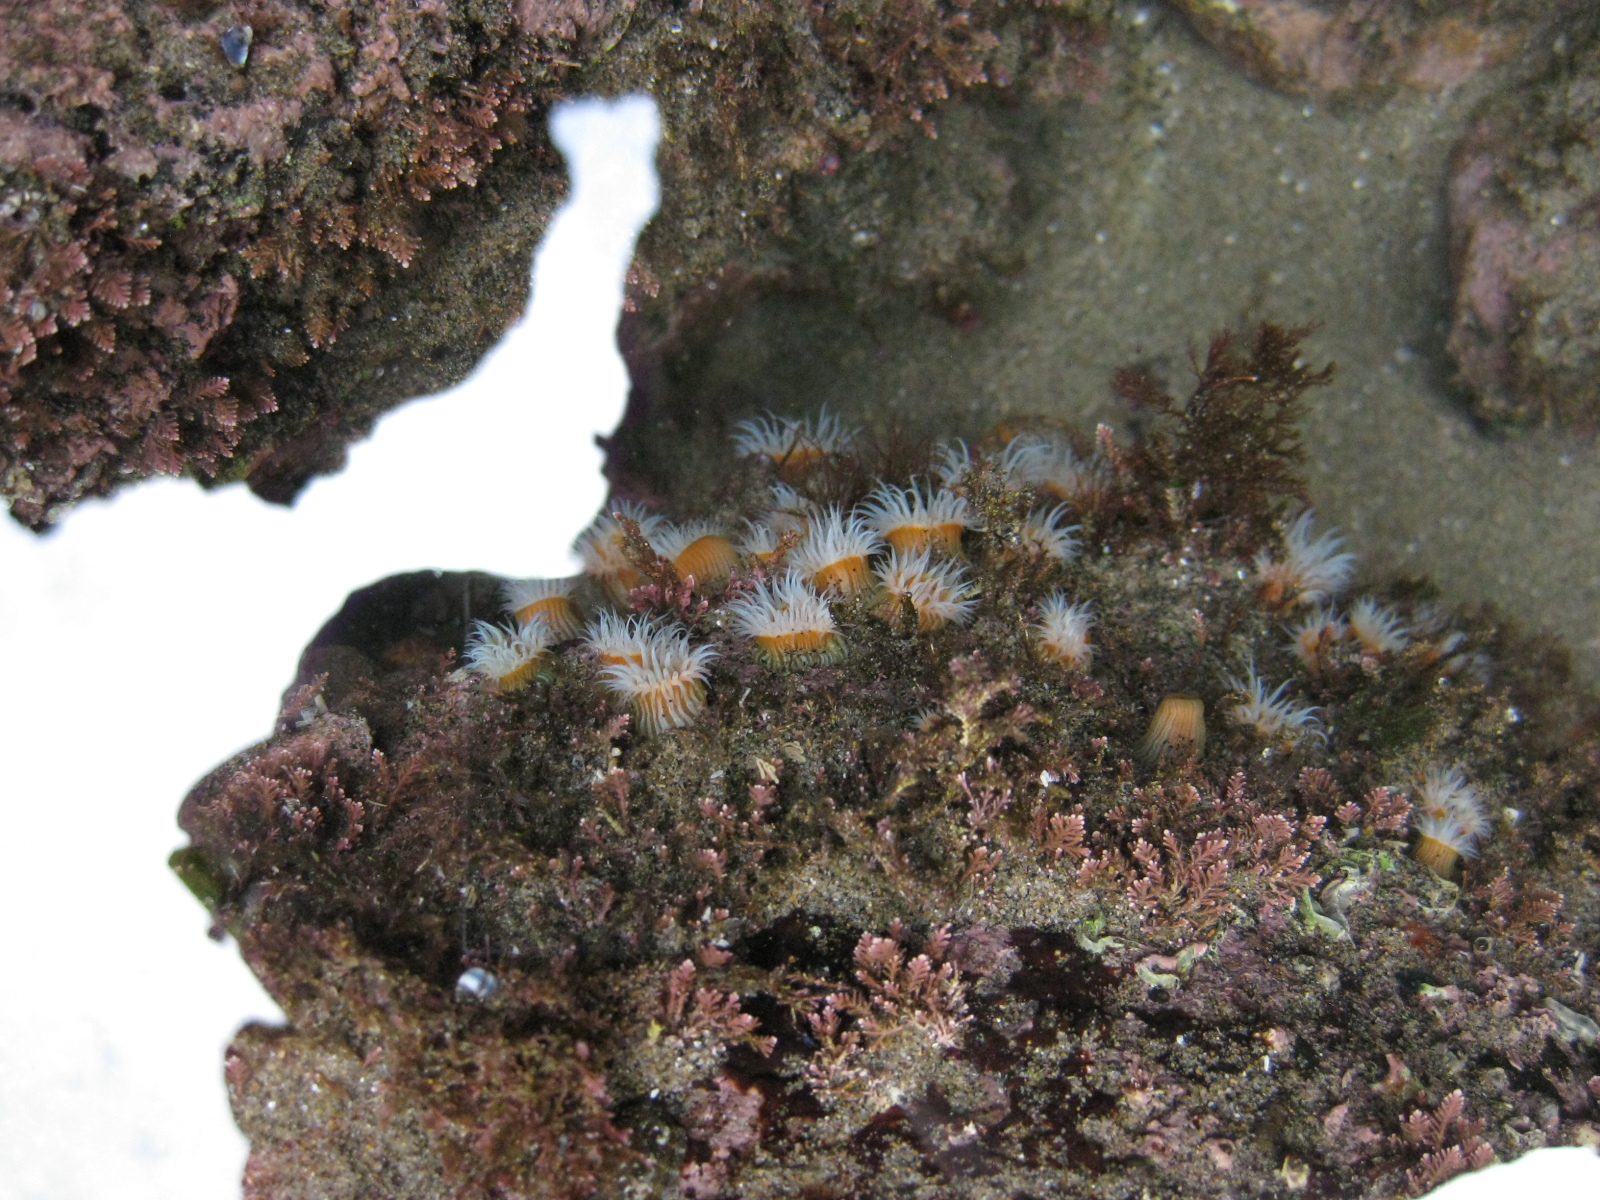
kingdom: Animalia
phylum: Cnidaria
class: Anthozoa
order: Actiniaria
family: Sagartiidae
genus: Anthothoe
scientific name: Anthothoe albocincta
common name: Orange striped anemone
